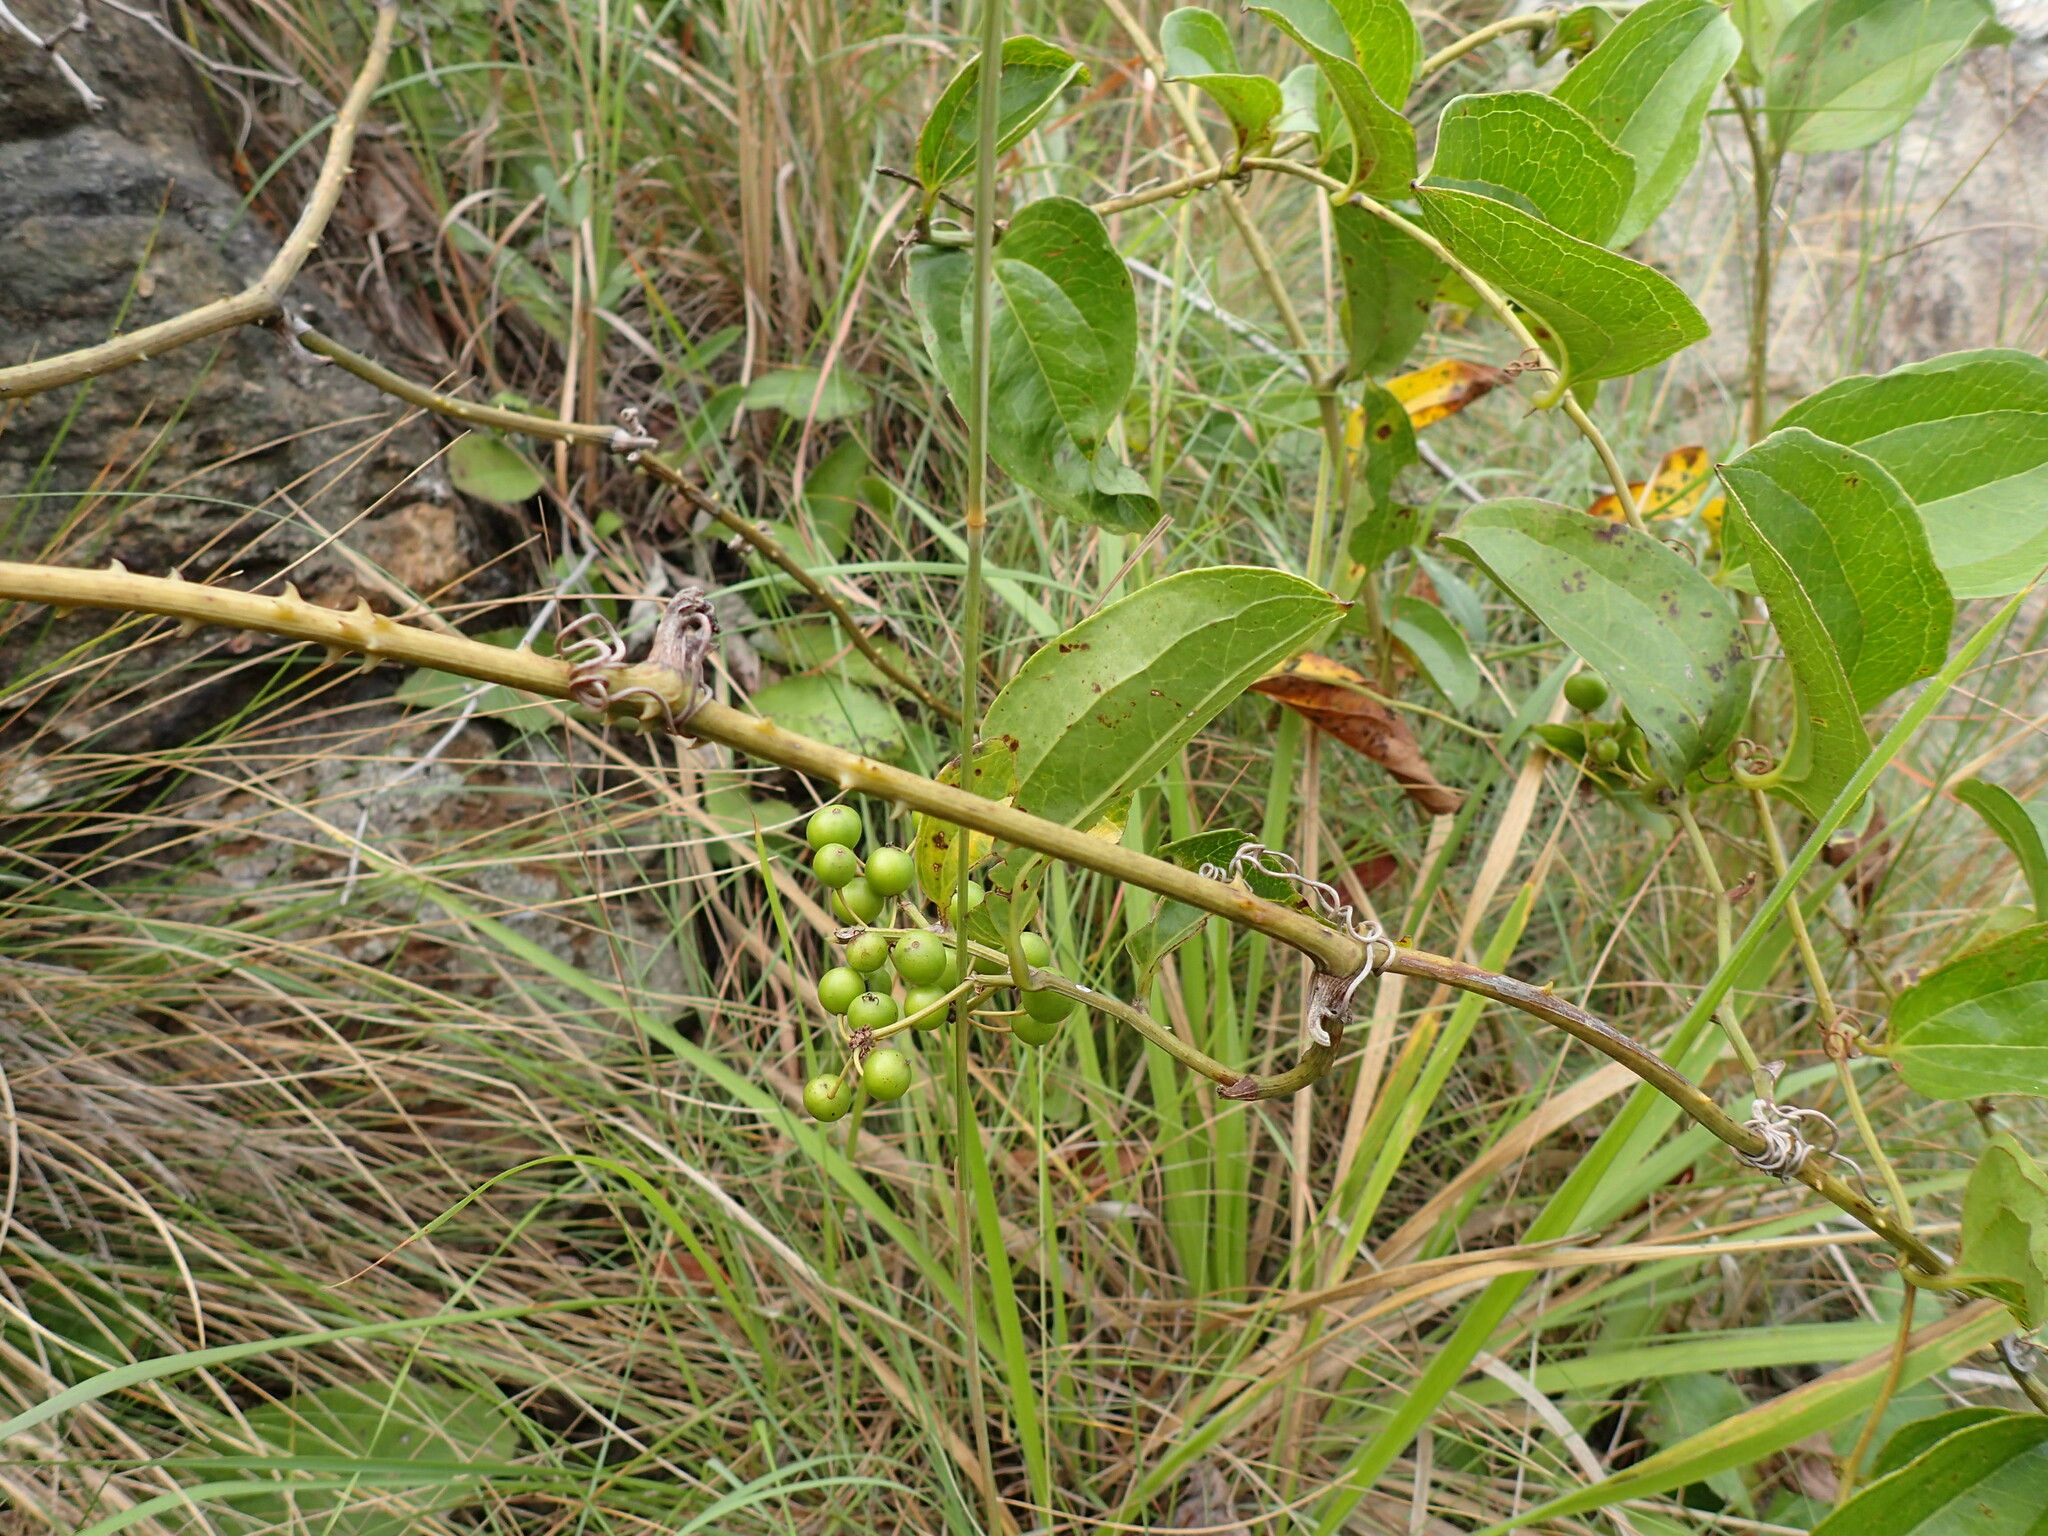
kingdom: Plantae
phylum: Tracheophyta
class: Liliopsida
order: Liliales
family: Smilacaceae
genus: Smilax
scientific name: Smilax anceps
